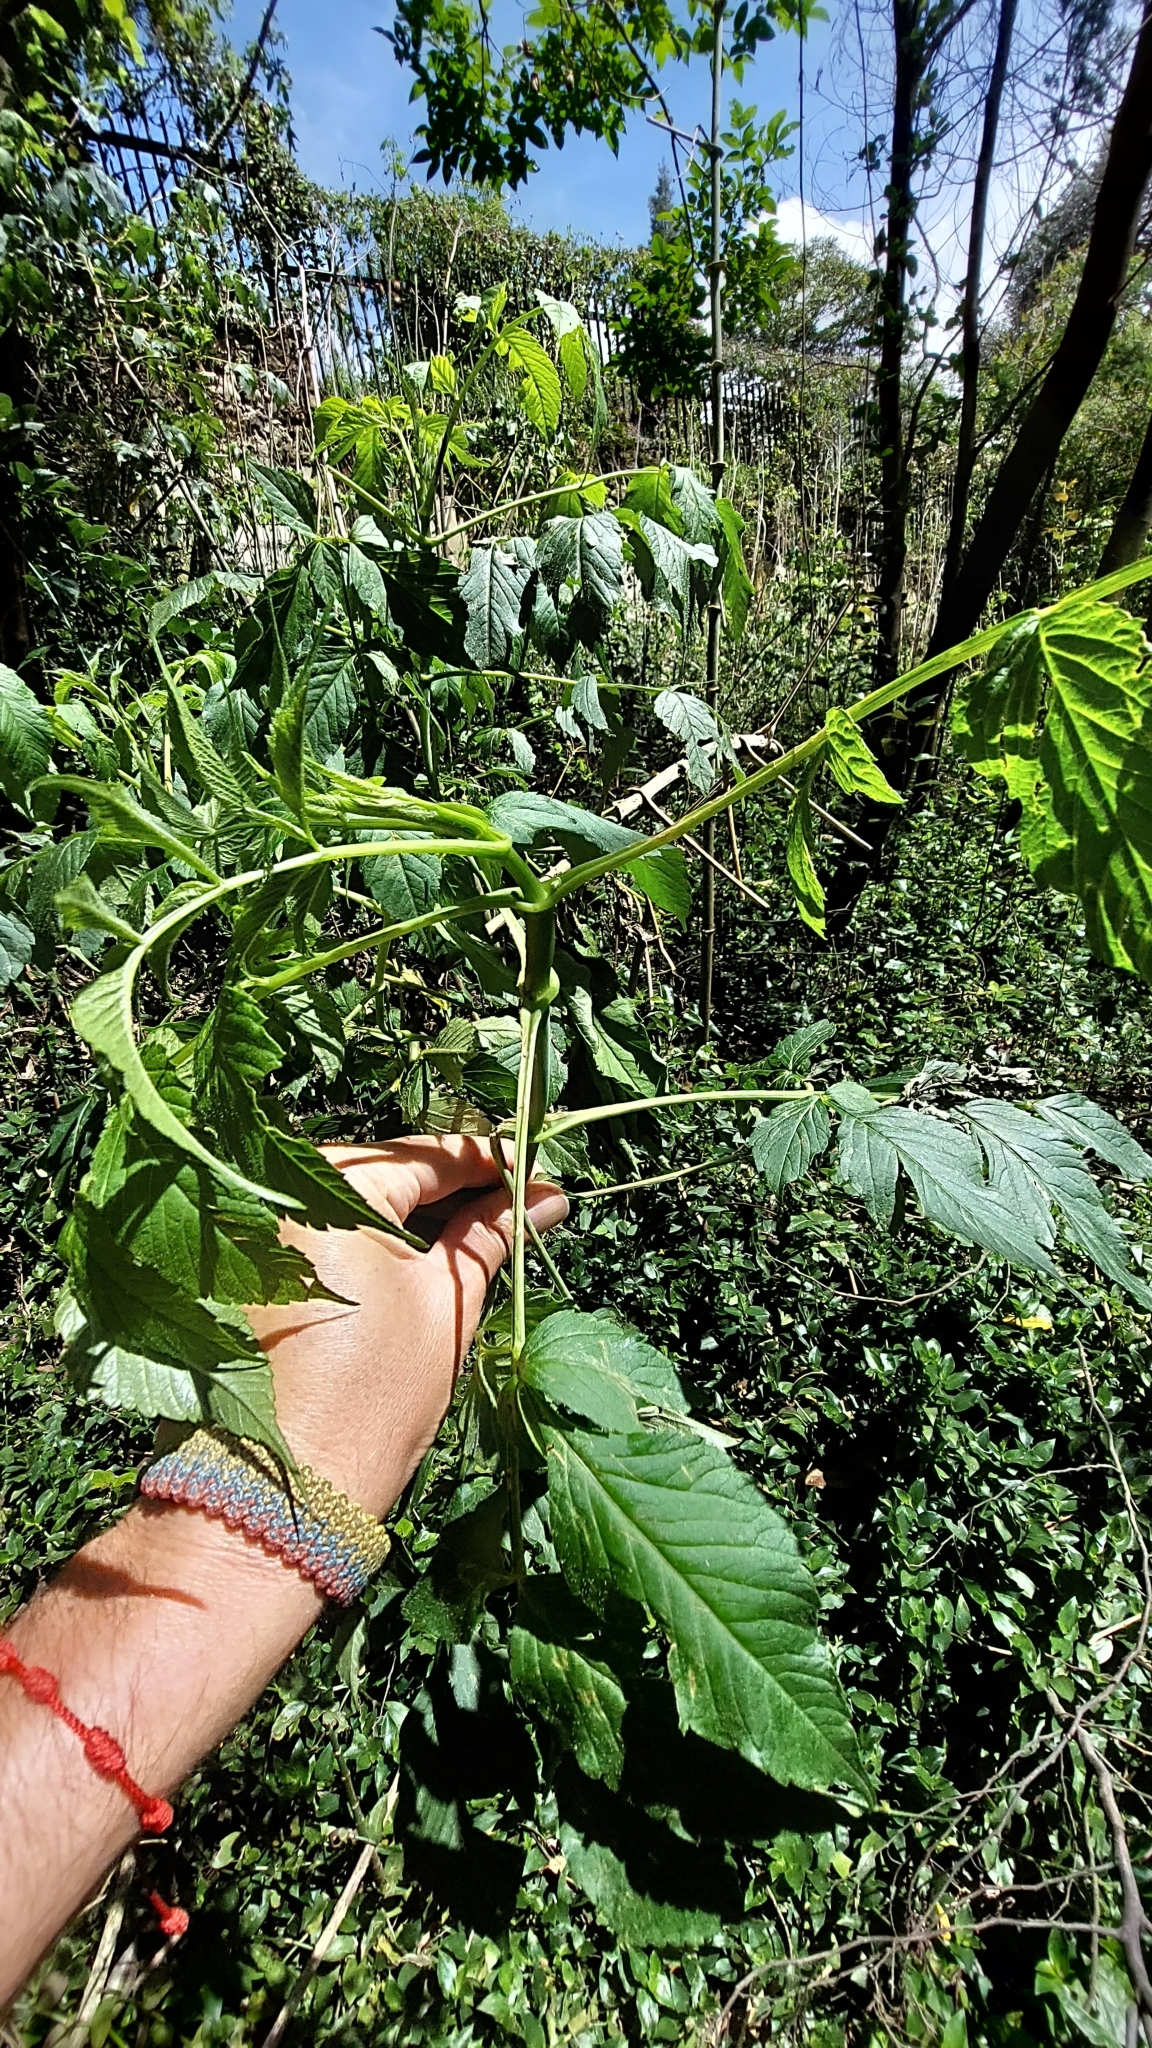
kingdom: Plantae
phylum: Tracheophyta
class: Magnoliopsida
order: Asterales
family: Asteraceae
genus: Dahlia
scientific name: Dahlia imperialis
